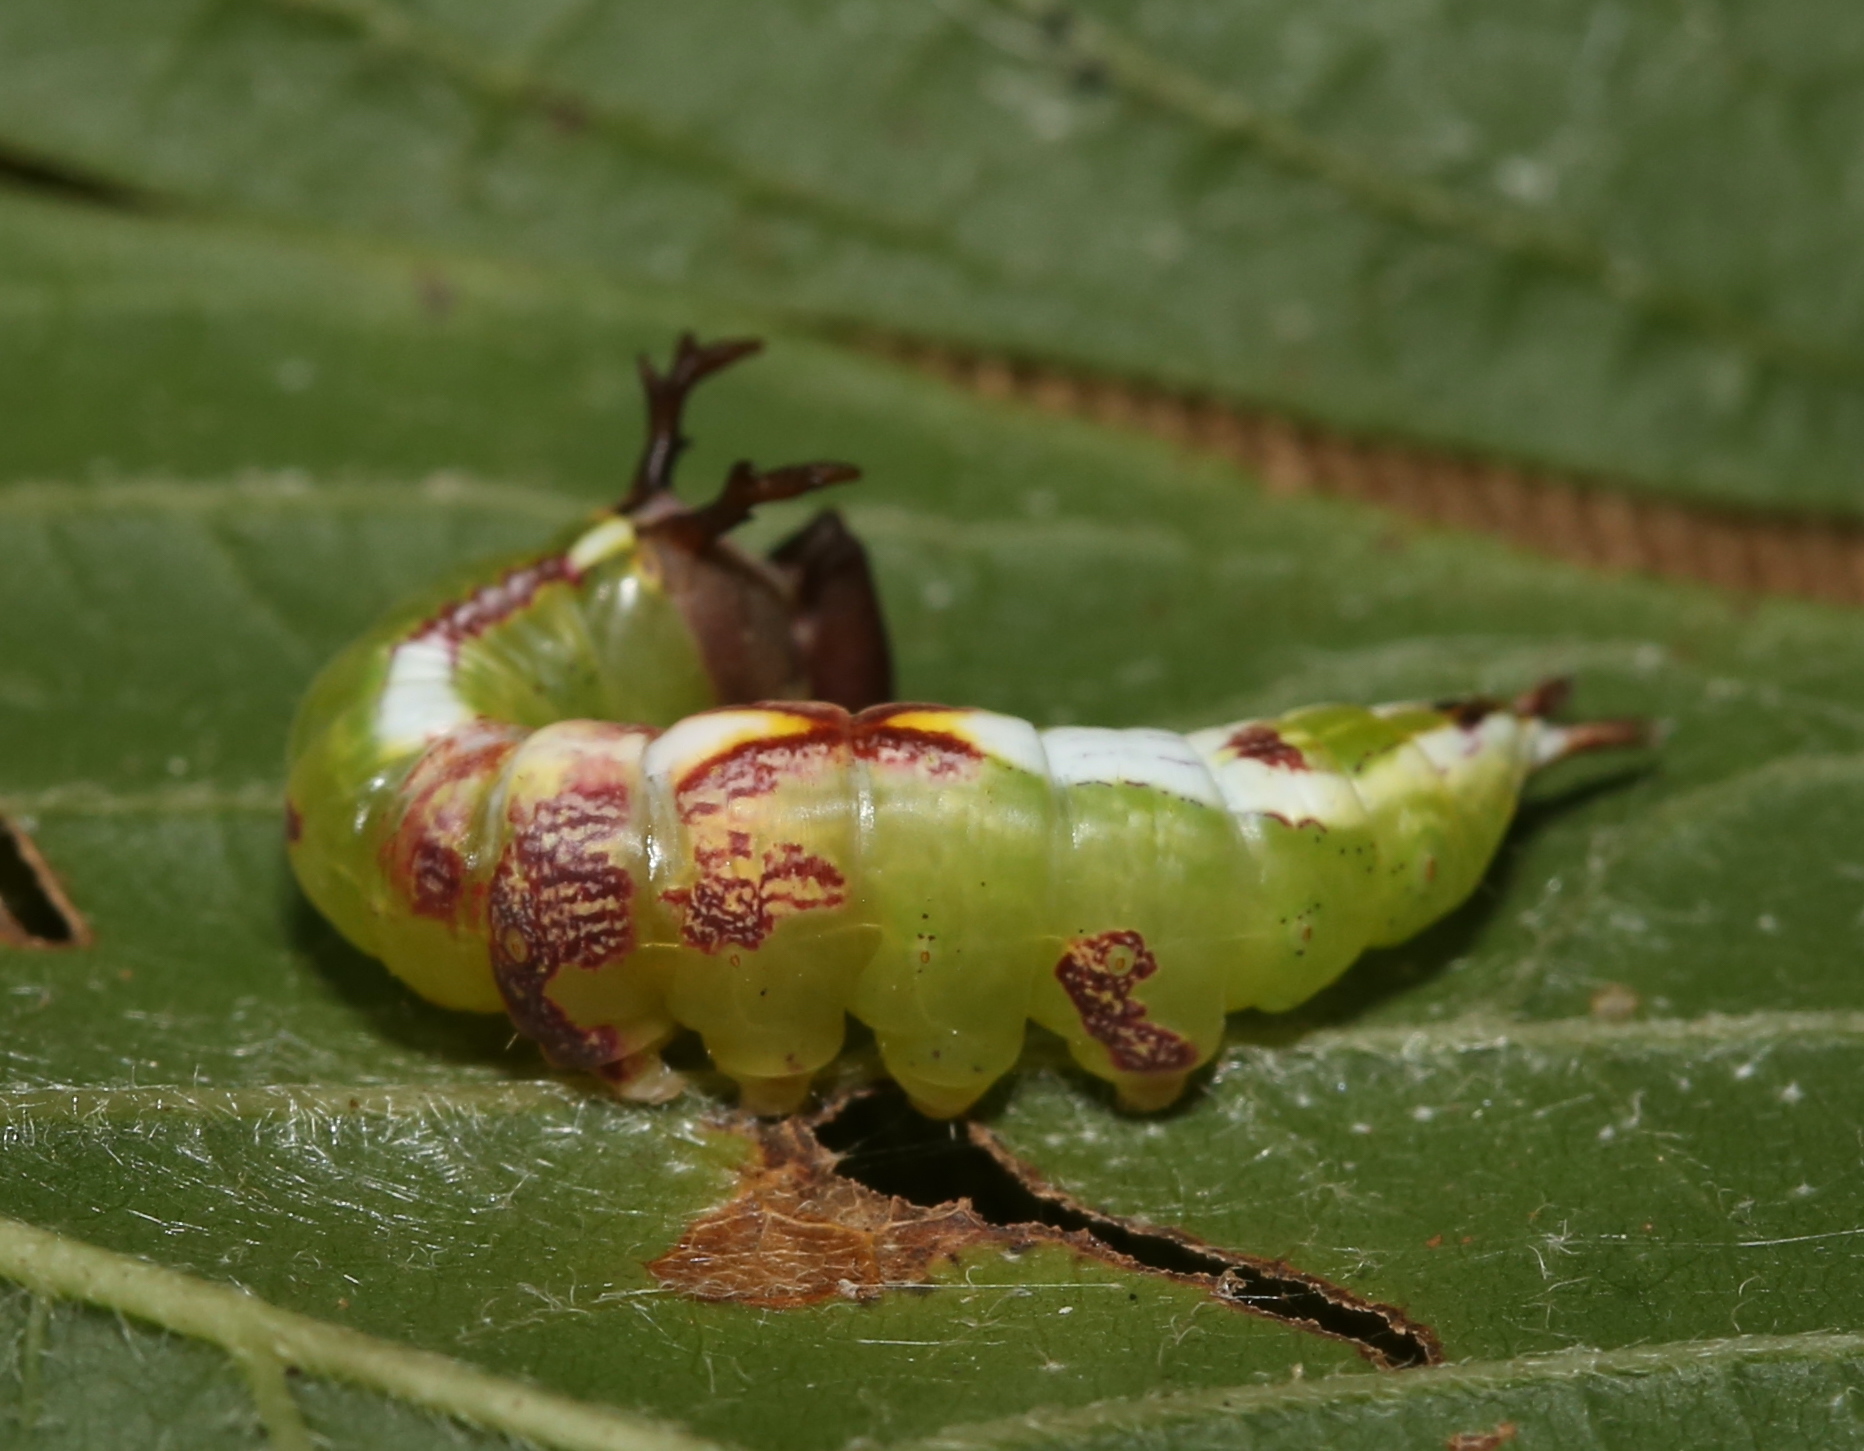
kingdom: Animalia
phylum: Arthropoda
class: Insecta
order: Lepidoptera
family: Notodontidae
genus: Disphragis
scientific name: Disphragis Cecrita biundata
